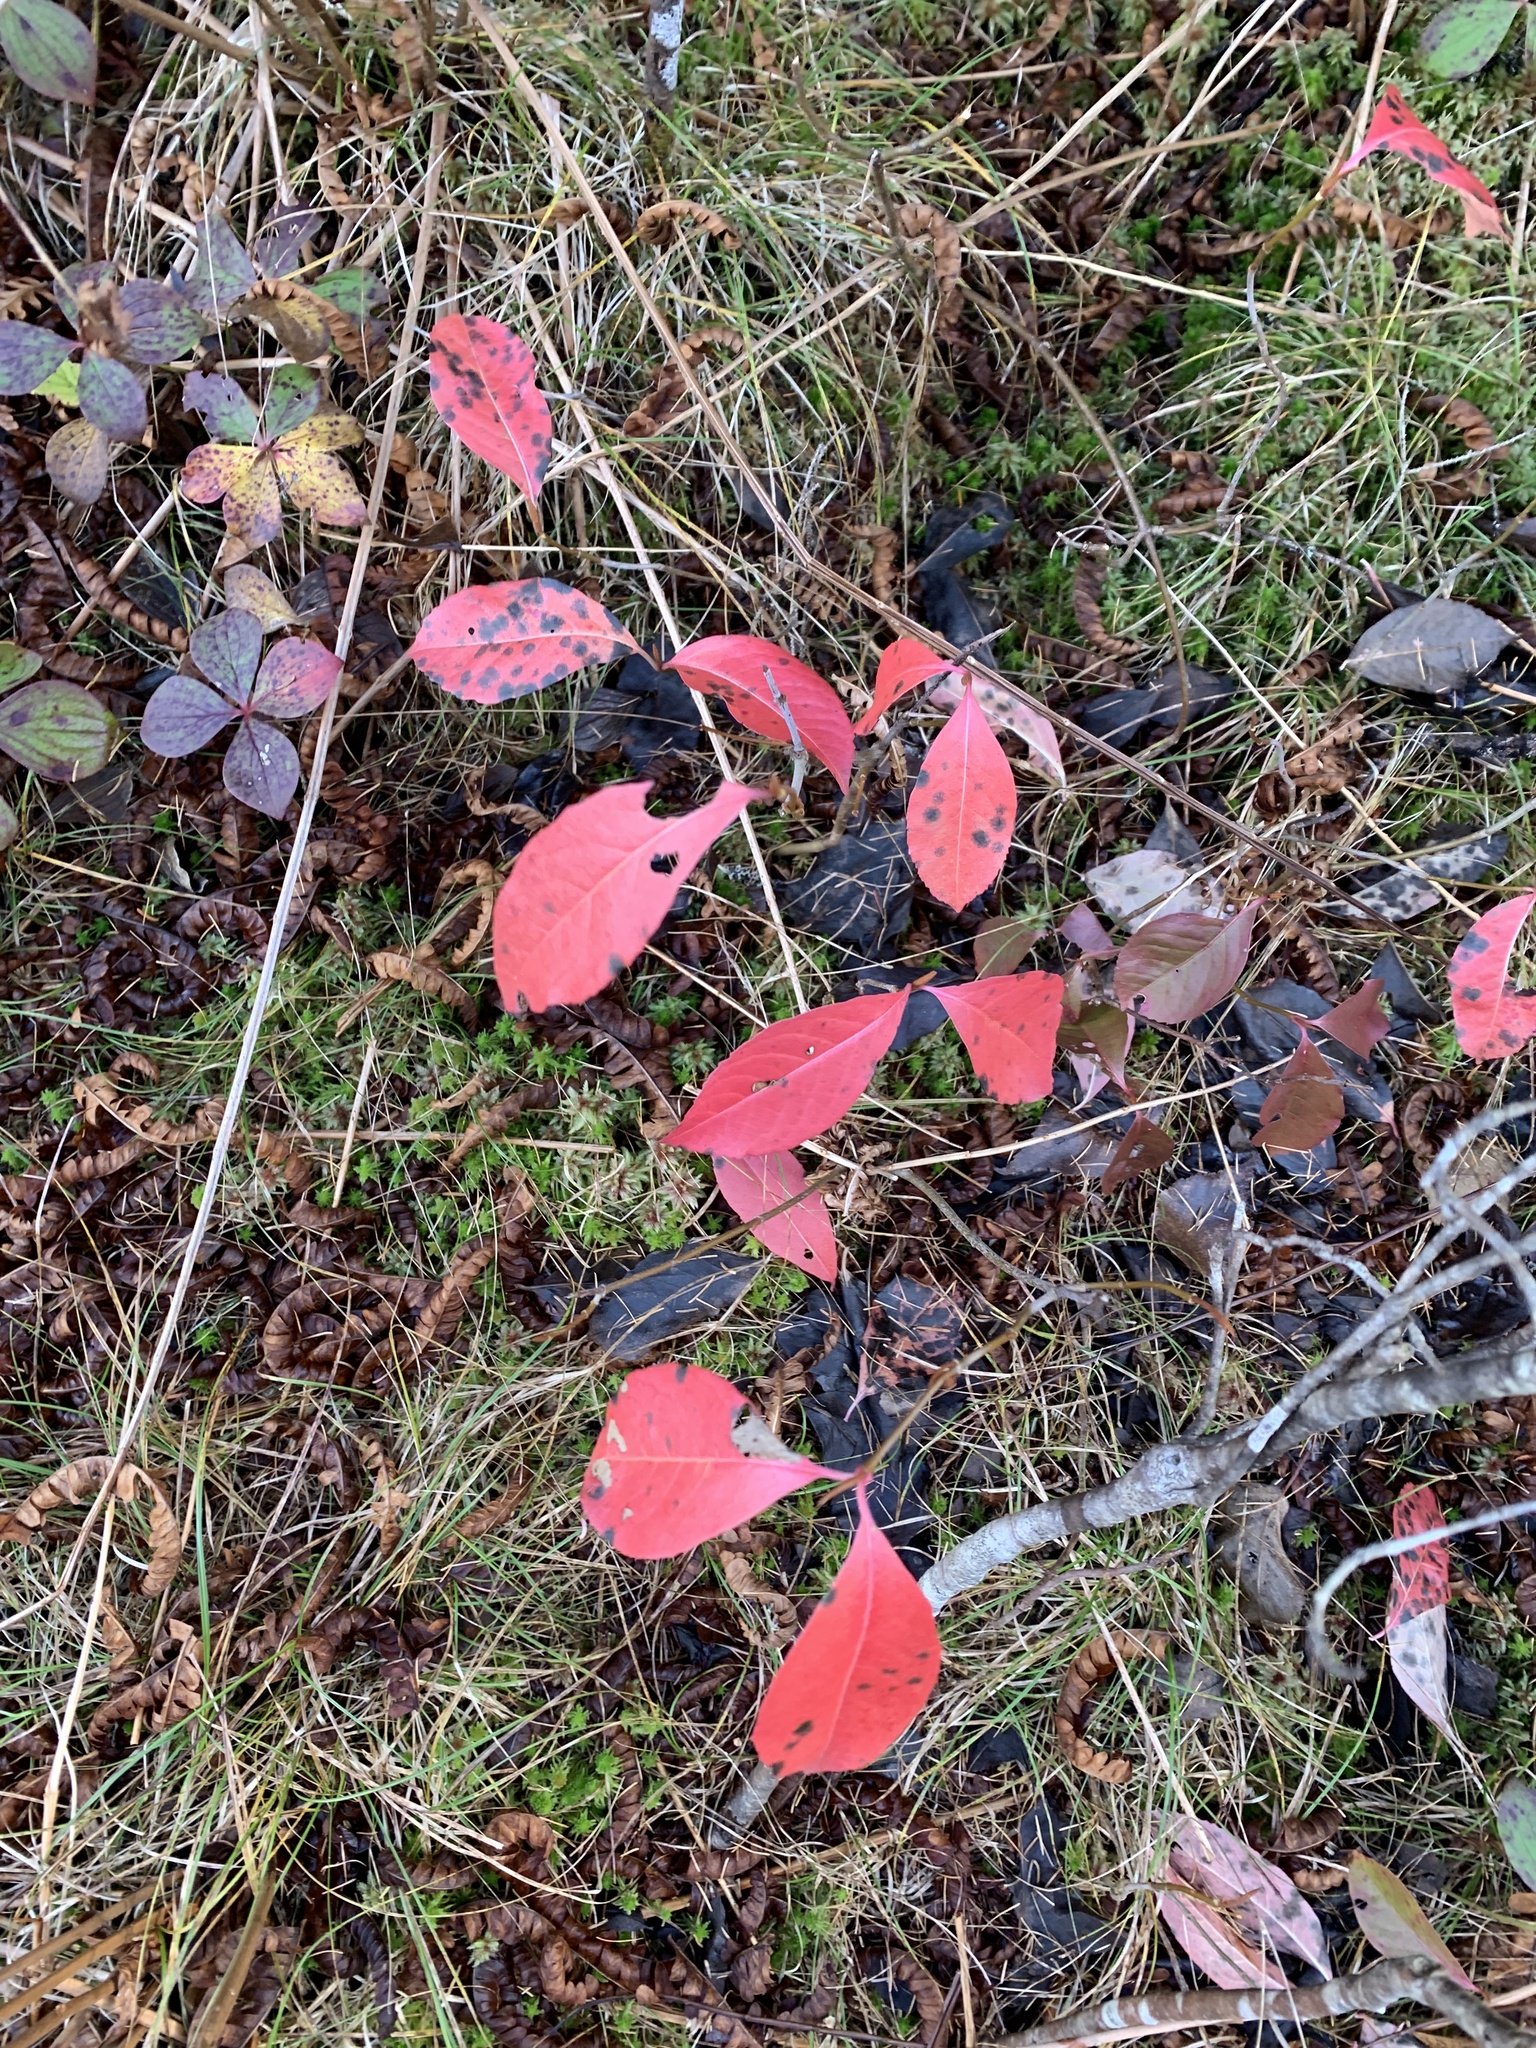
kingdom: Plantae
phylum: Tracheophyta
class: Magnoliopsida
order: Dipsacales
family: Viburnaceae
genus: Viburnum
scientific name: Viburnum cassinoides
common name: Swamp haw
